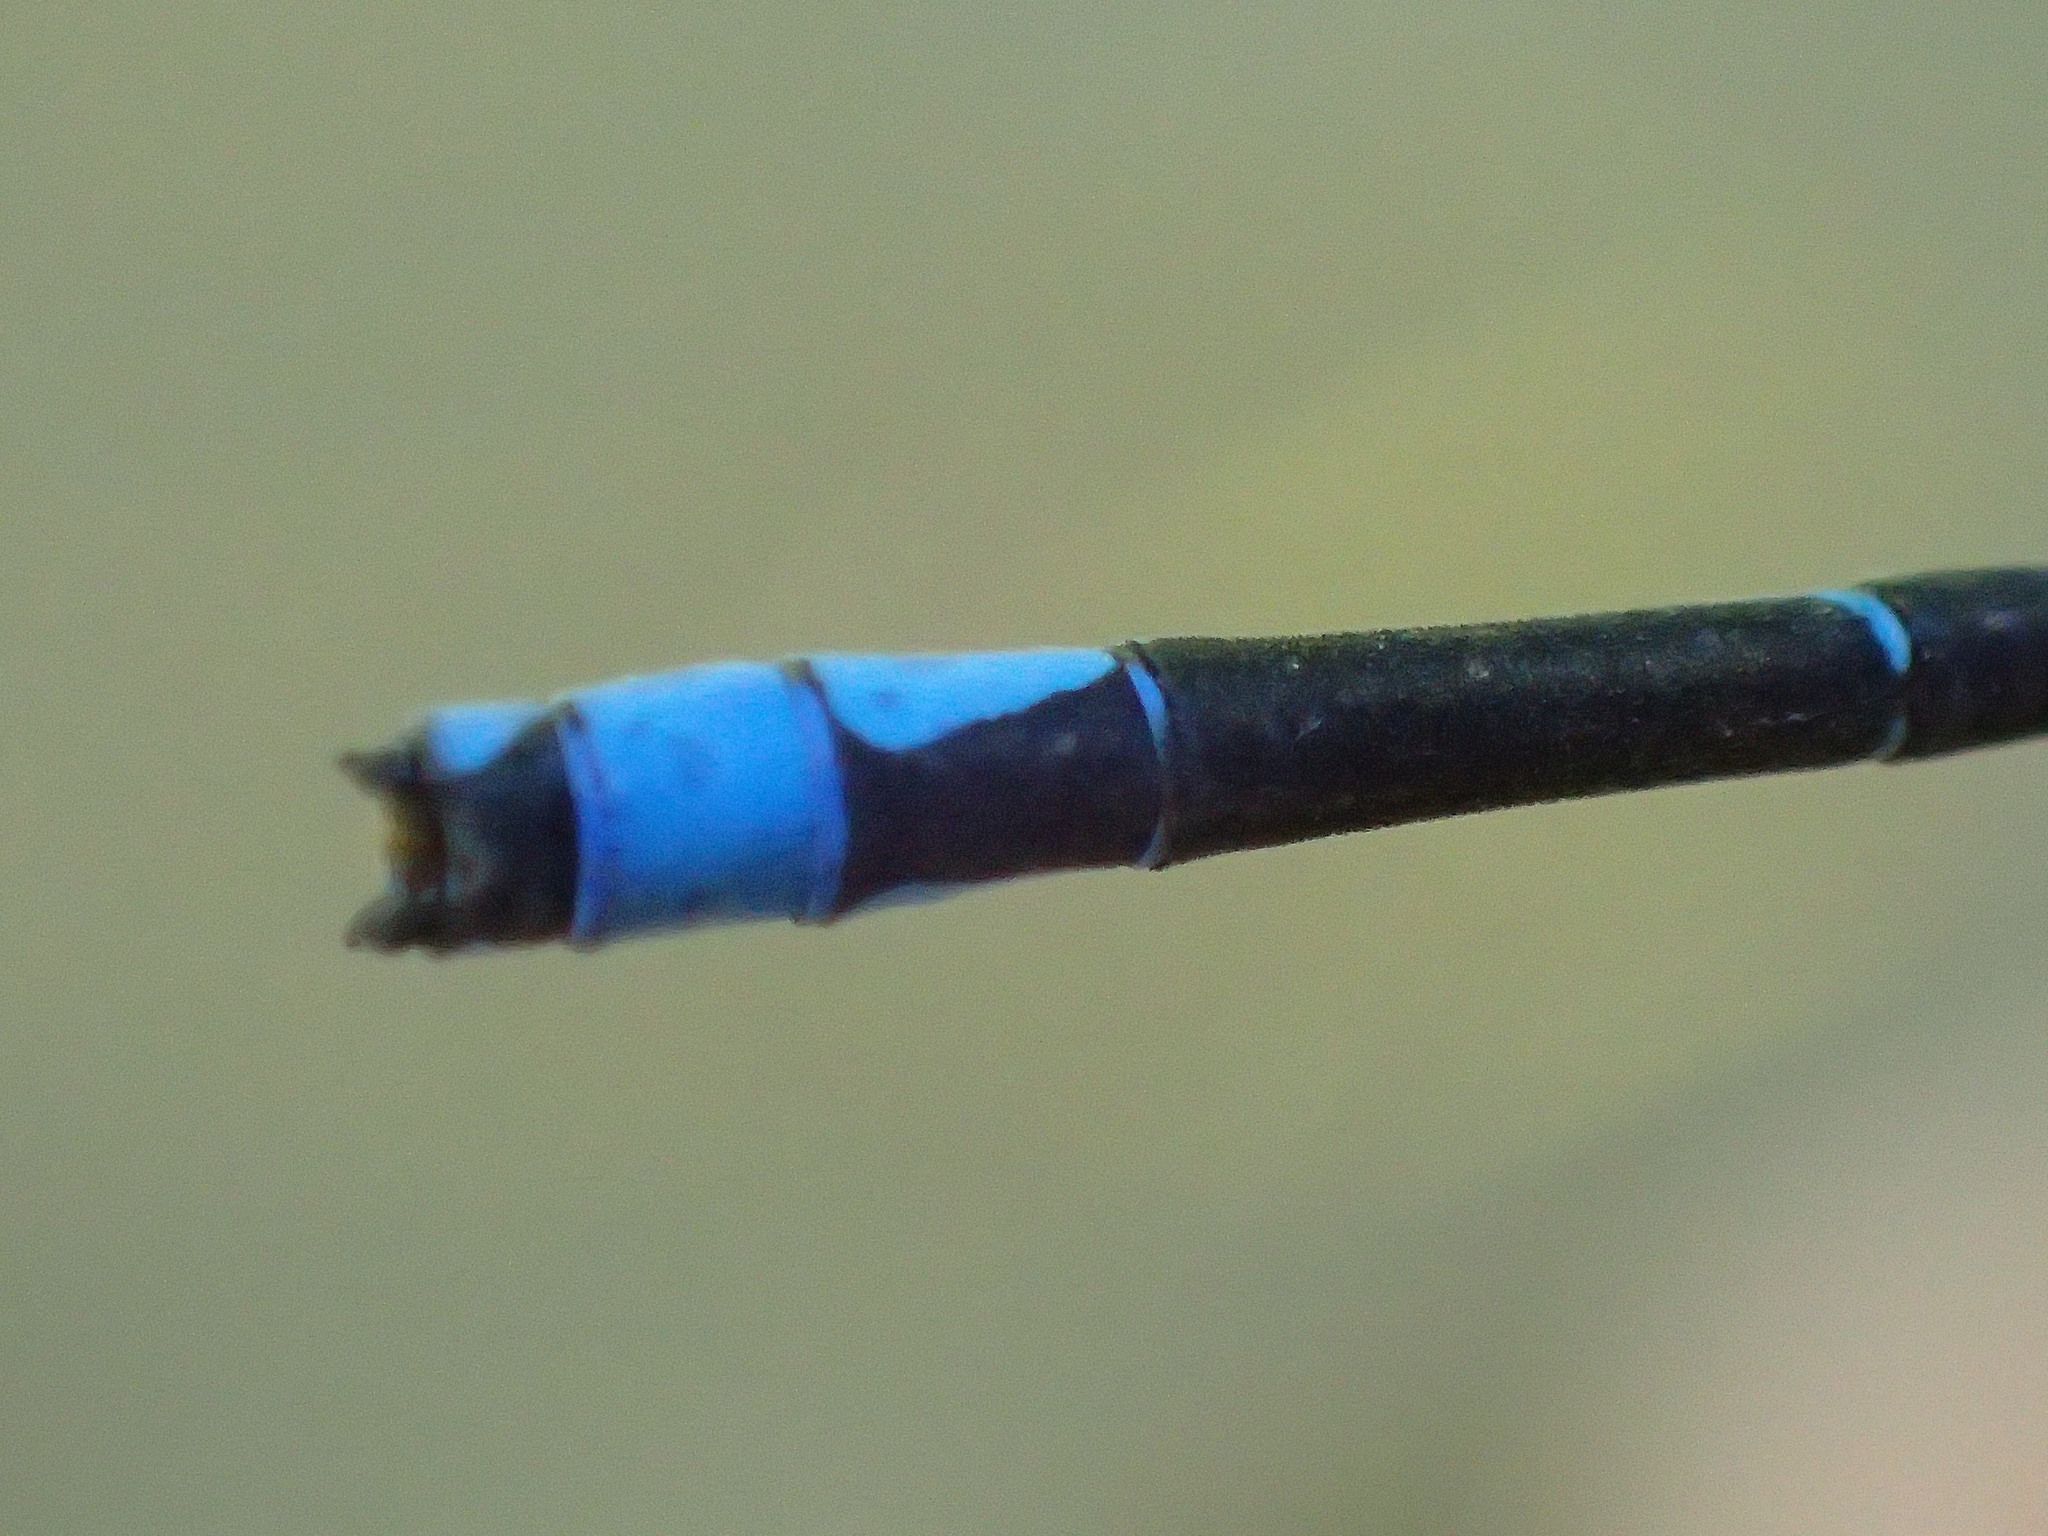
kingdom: Animalia
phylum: Arthropoda
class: Insecta
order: Odonata
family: Coenagrionidae
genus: Enallagma
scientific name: Enallagma exsulans
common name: Stream bluet
